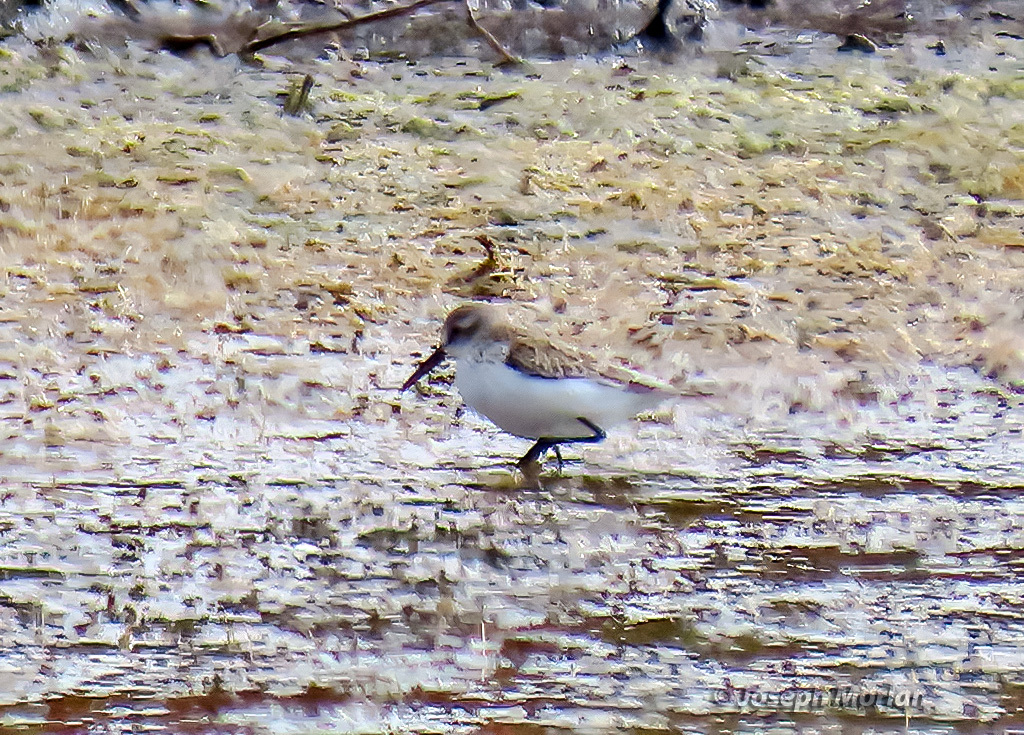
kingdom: Animalia
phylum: Chordata
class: Aves
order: Charadriiformes
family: Scolopacidae
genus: Calidris
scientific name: Calidris mauri
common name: Western sandpiper
